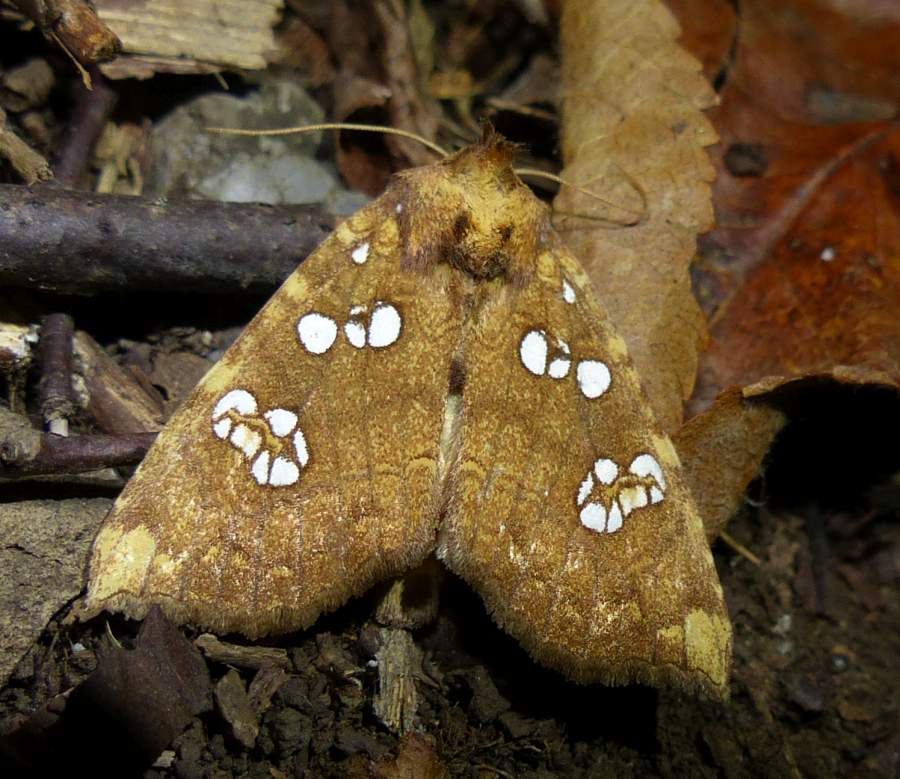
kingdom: Animalia
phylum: Arthropoda
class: Insecta
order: Lepidoptera
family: Noctuidae
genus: Papaipema
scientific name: Papaipema furcata
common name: Ash tip borer moth
